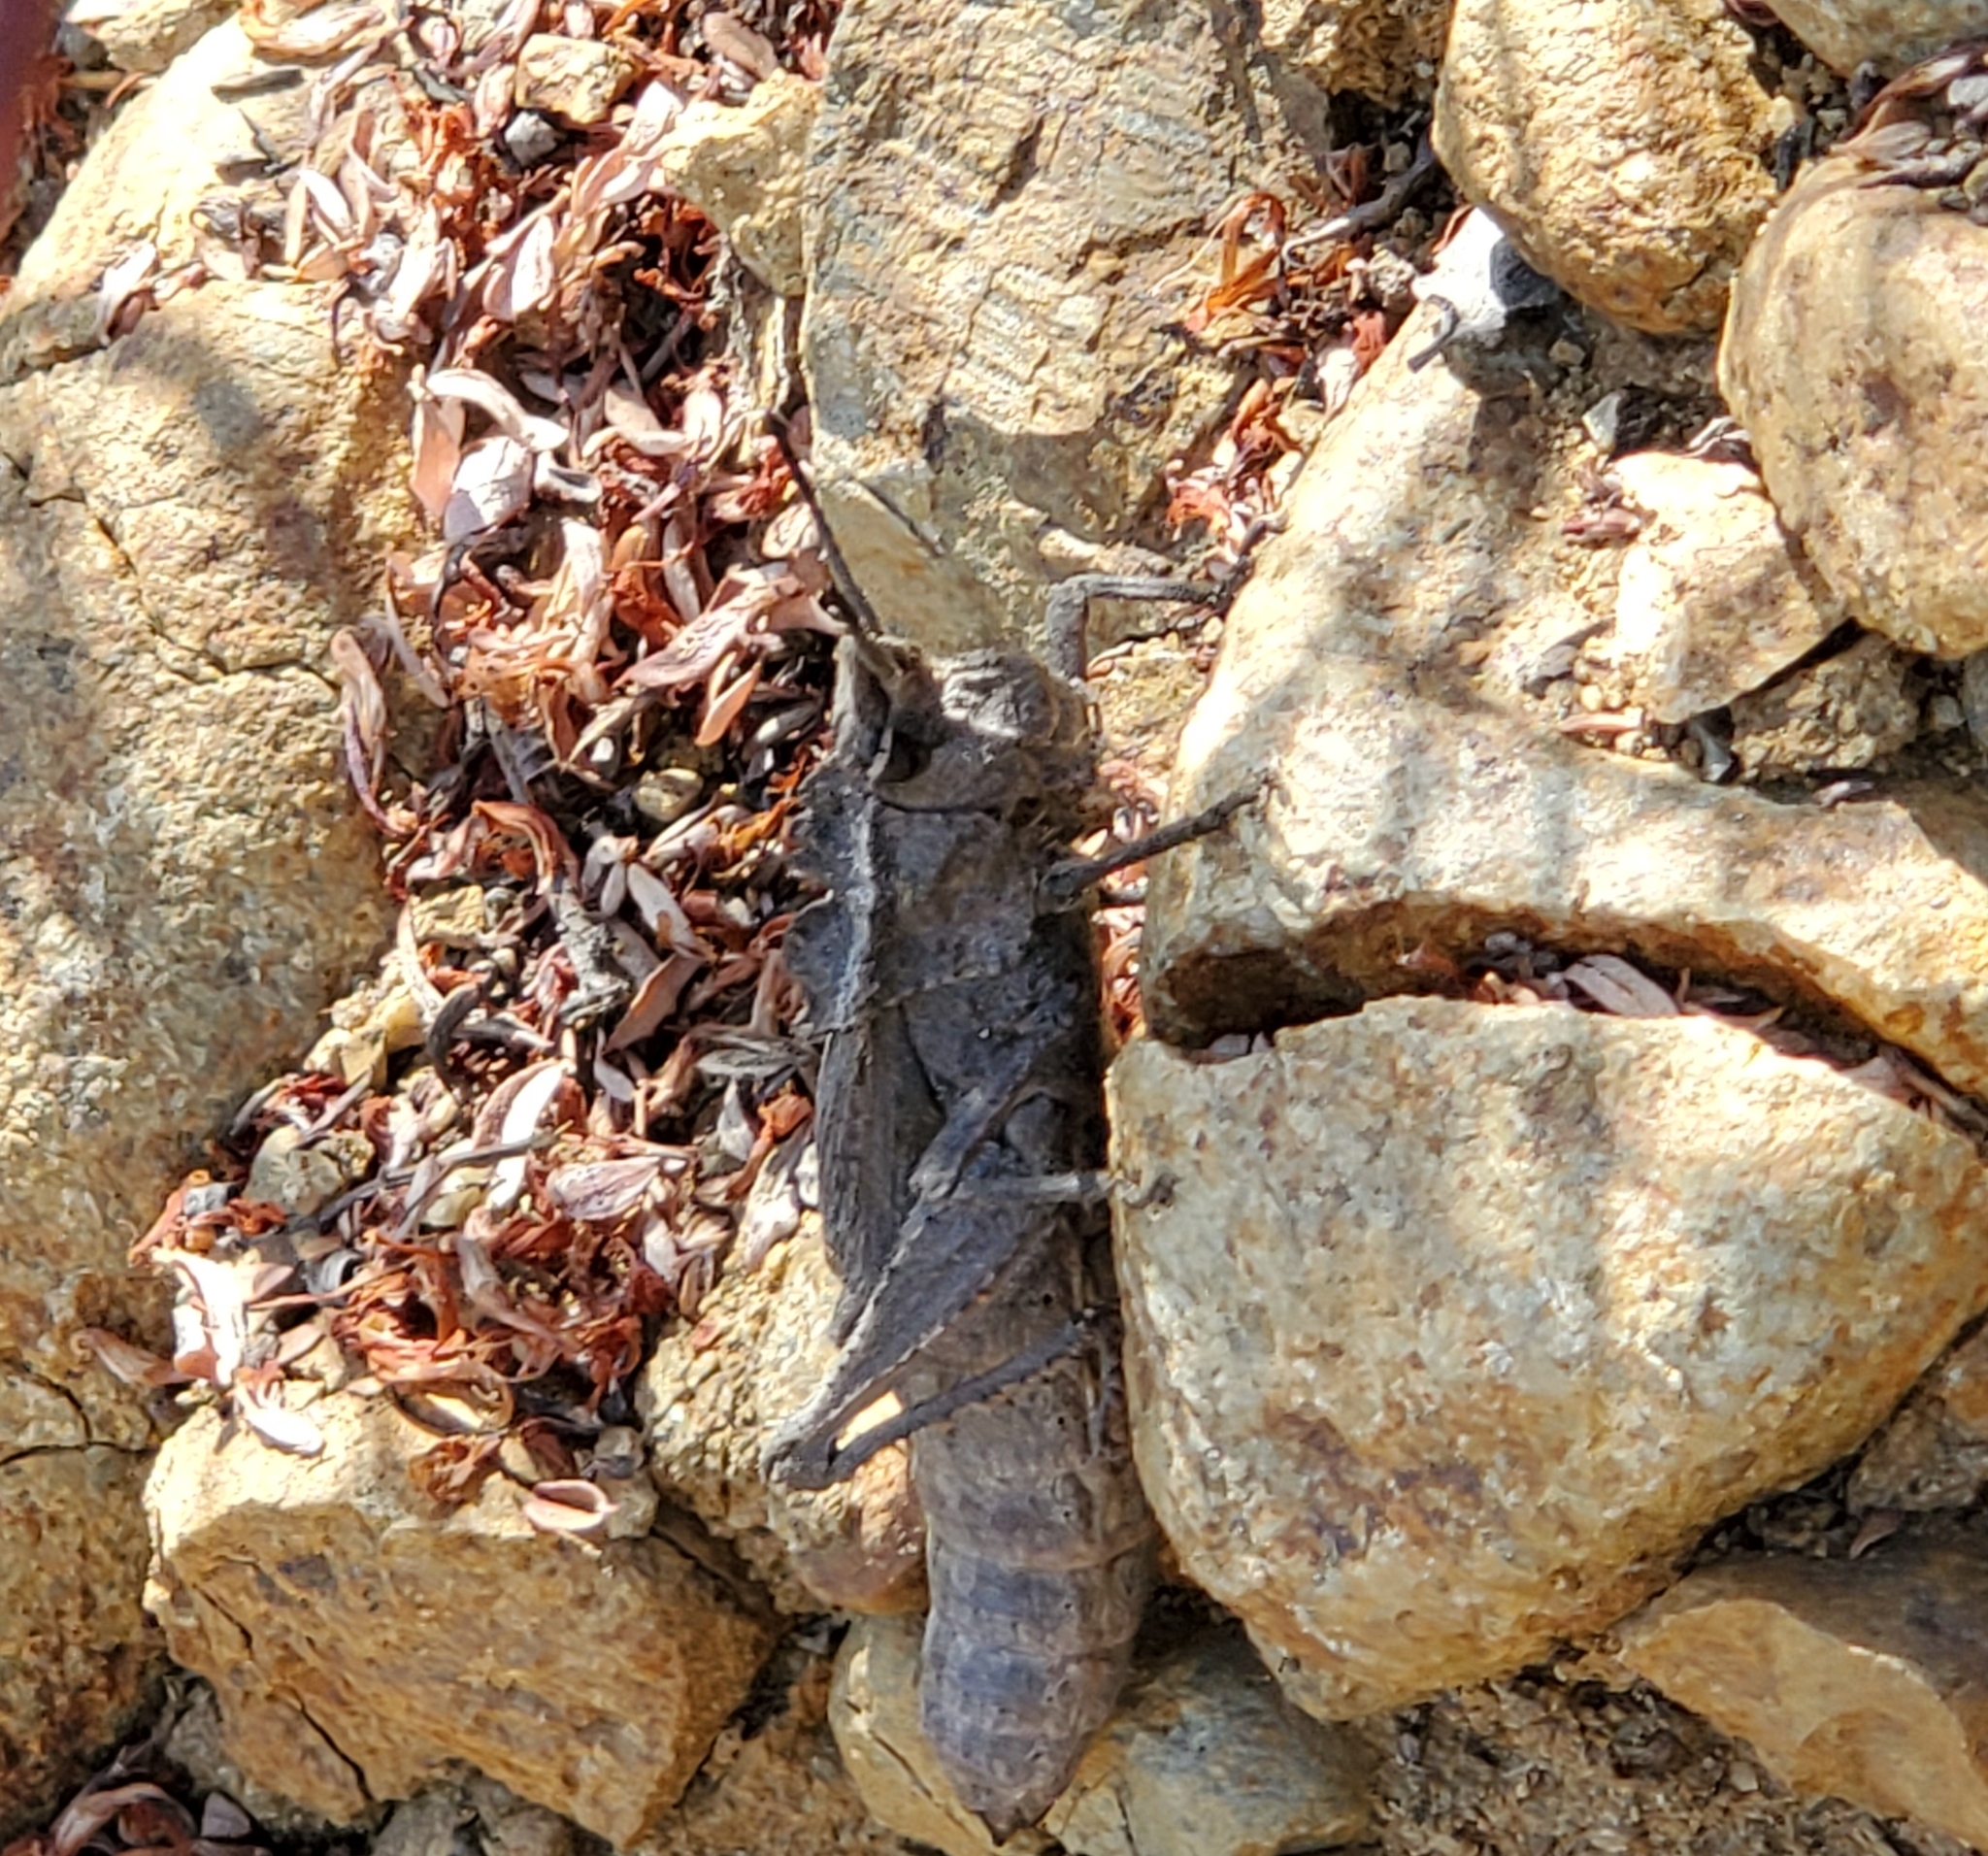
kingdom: Animalia
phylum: Arthropoda
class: Insecta
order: Orthoptera
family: Romaleidae
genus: Dracotettix
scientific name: Dracotettix monstrosus
